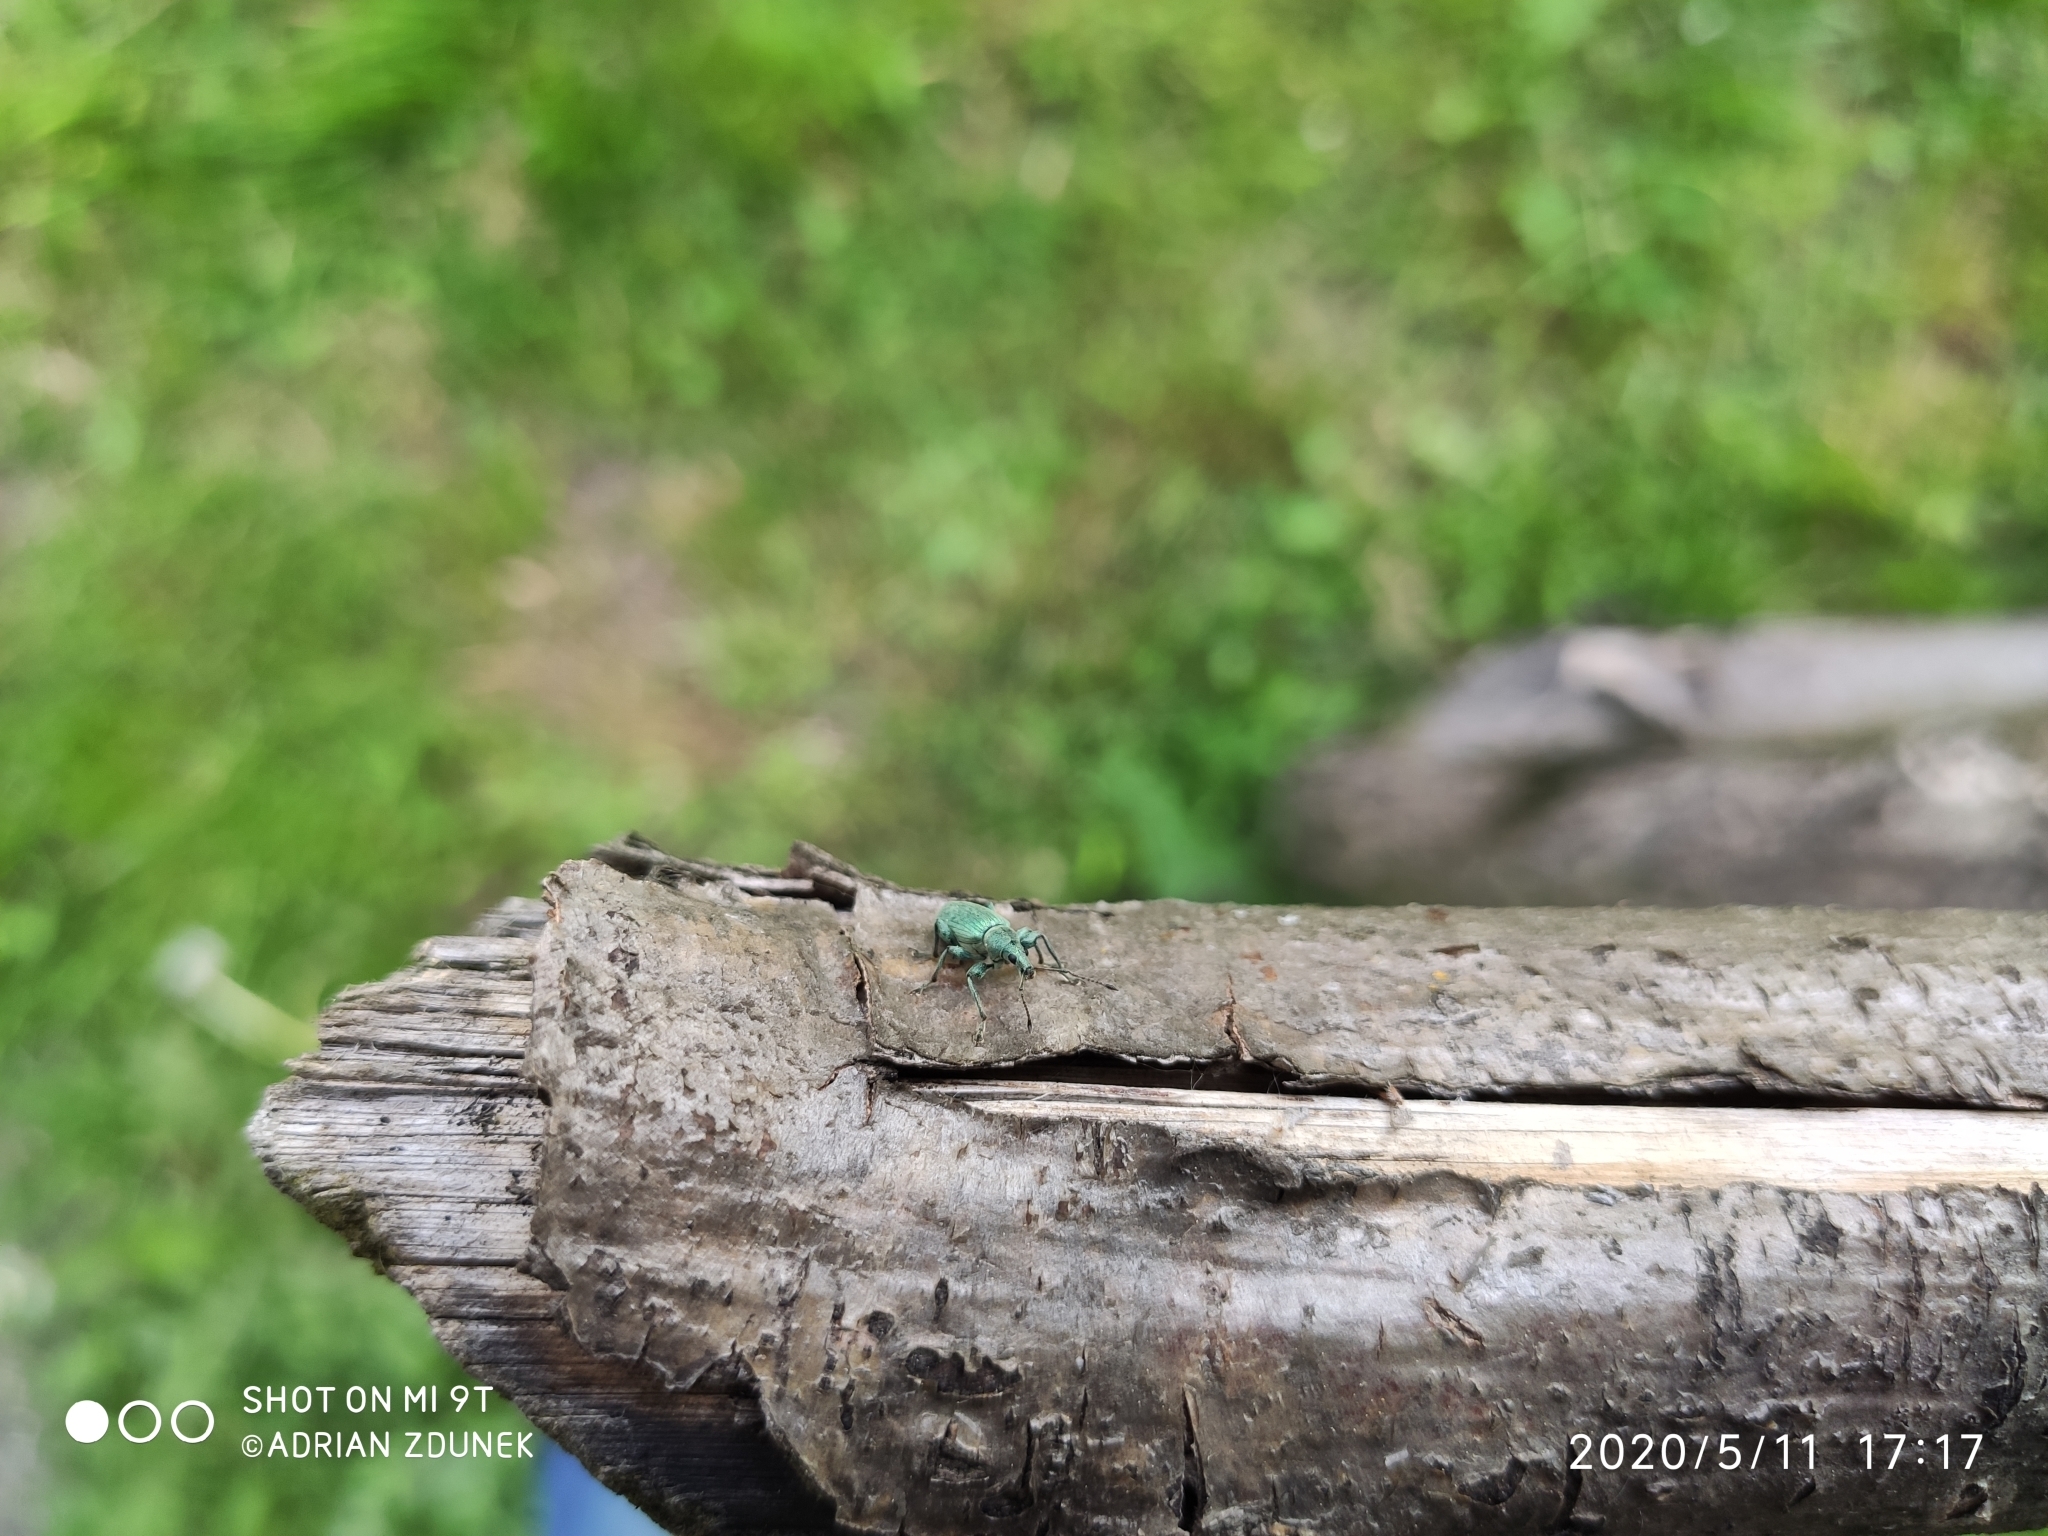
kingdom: Animalia
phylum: Arthropoda
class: Insecta
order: Coleoptera
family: Curculionidae
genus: Phyllobius
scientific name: Phyllobius pomaceus
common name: Green nettle weevil
